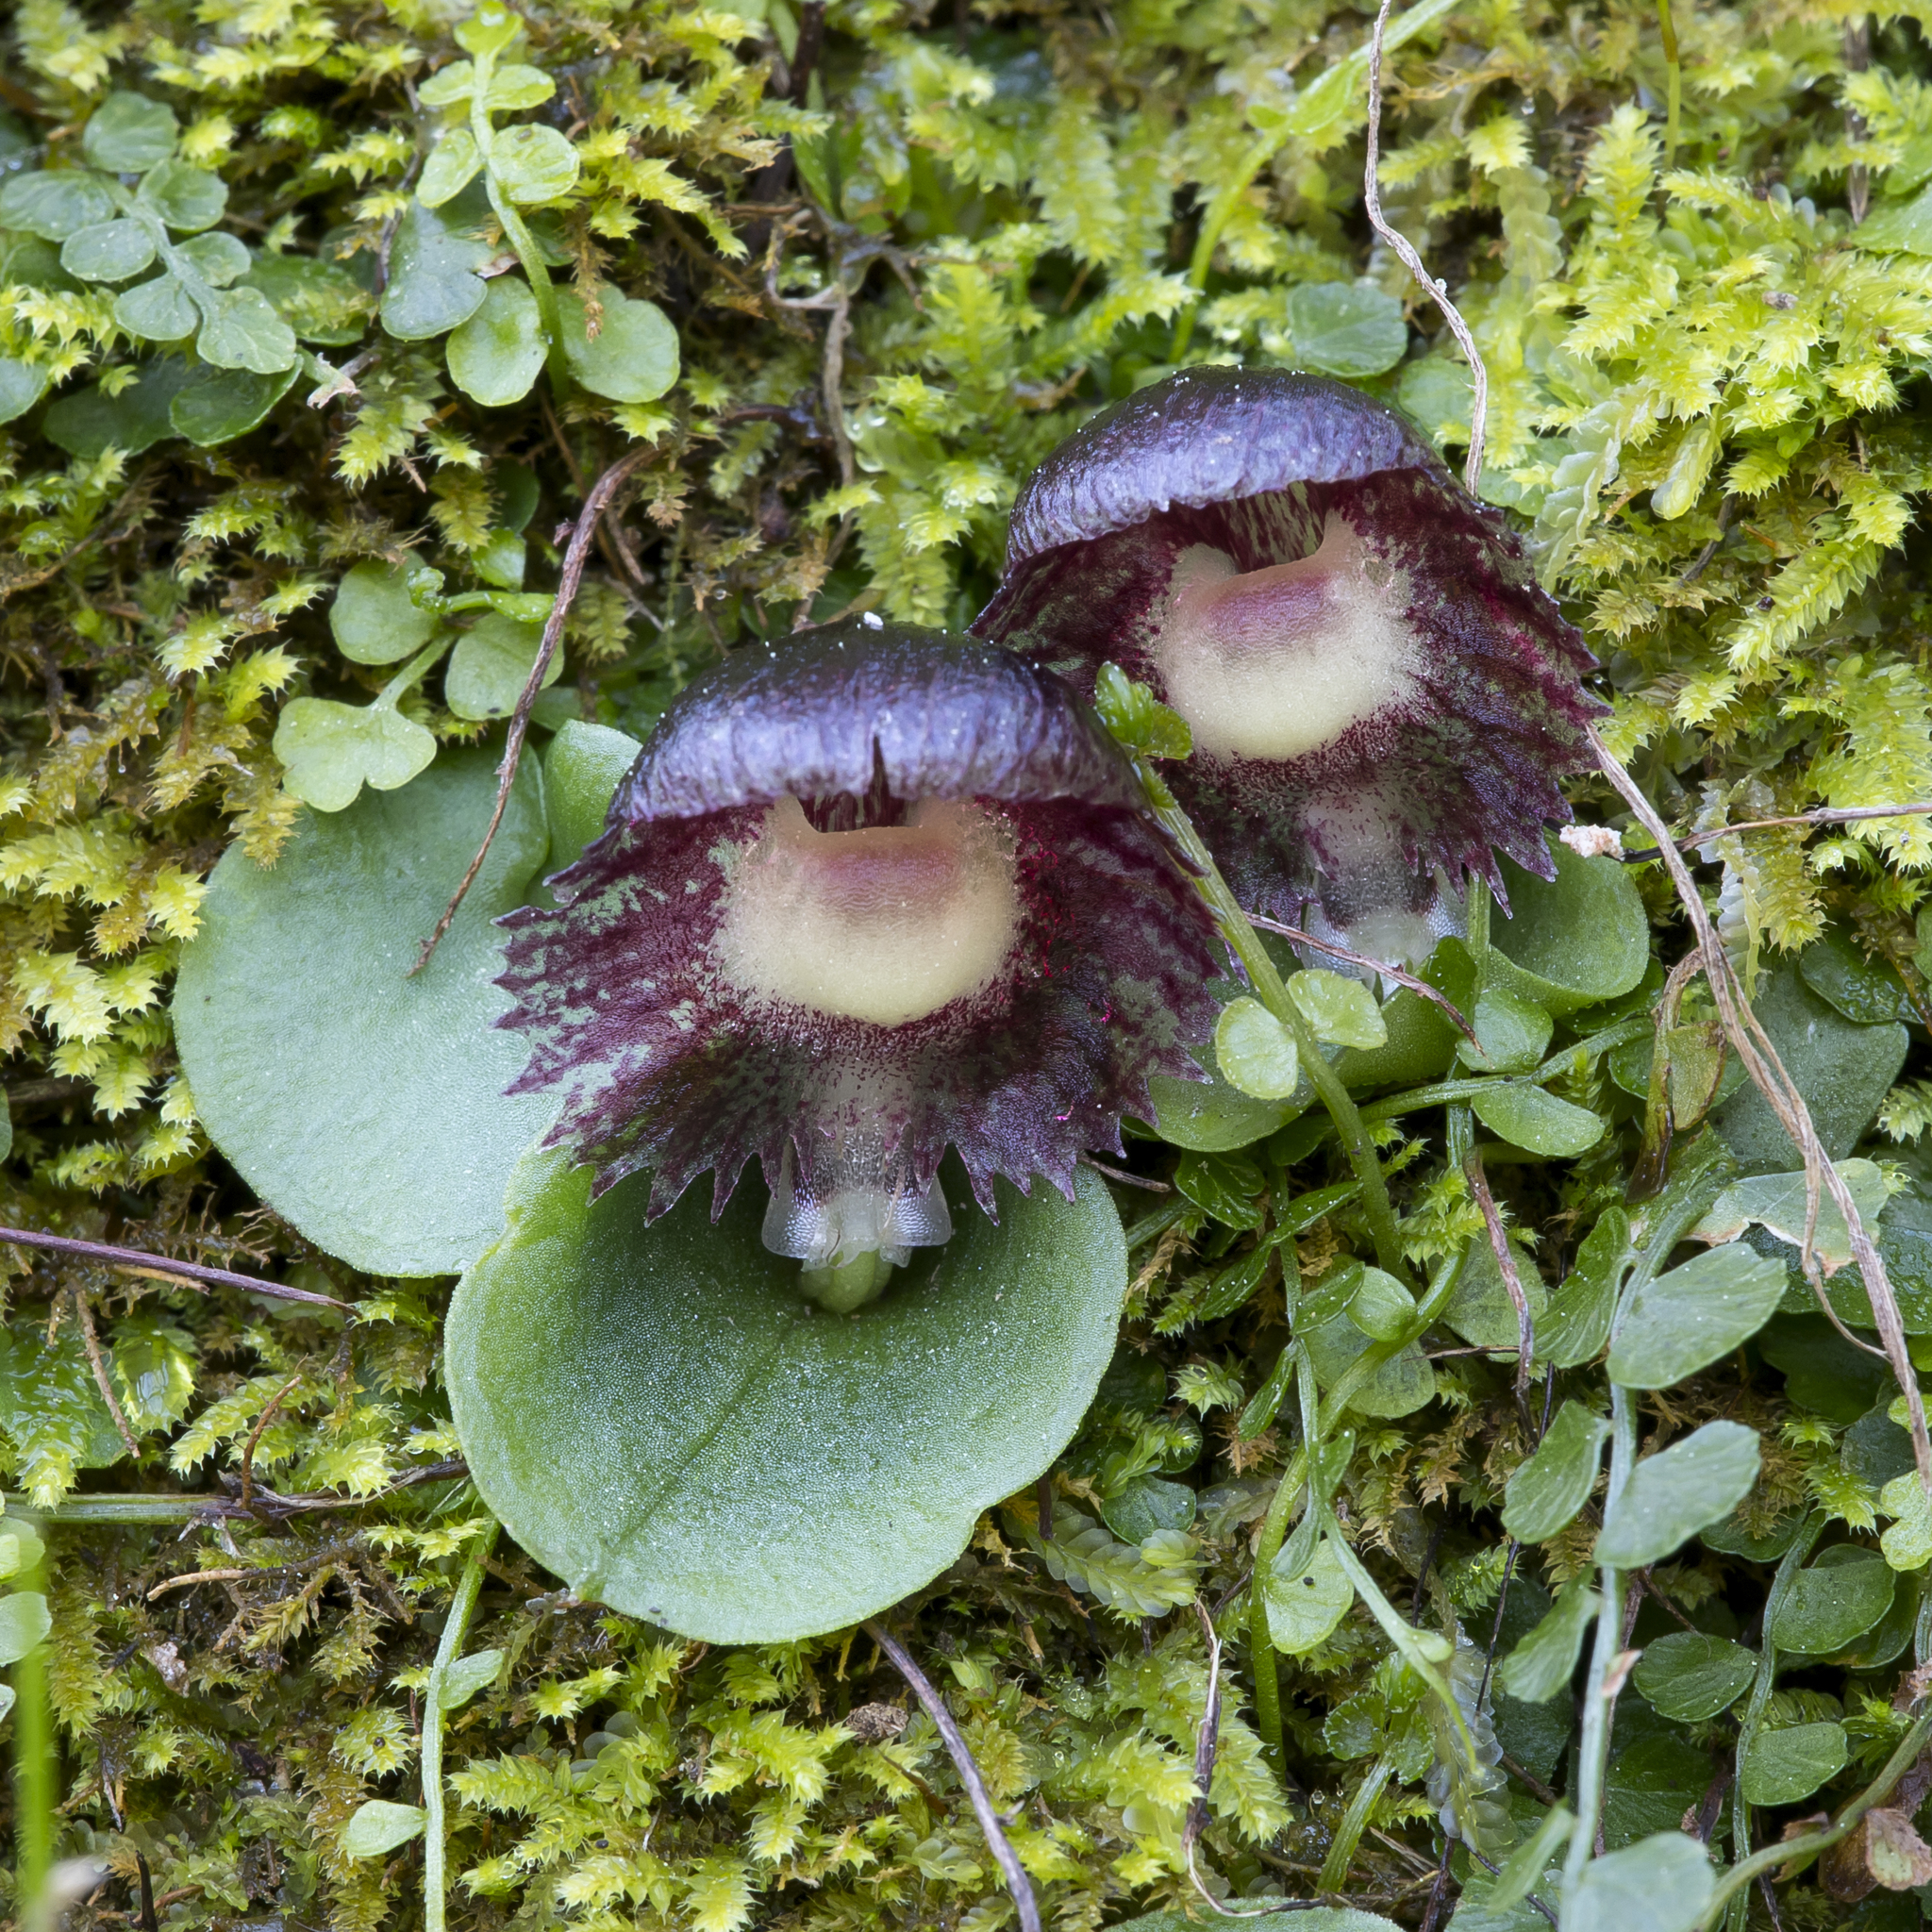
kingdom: Plantae
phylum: Tracheophyta
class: Liliopsida
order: Asparagales
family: Orchidaceae
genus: Corybas
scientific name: Corybas diemenicus
